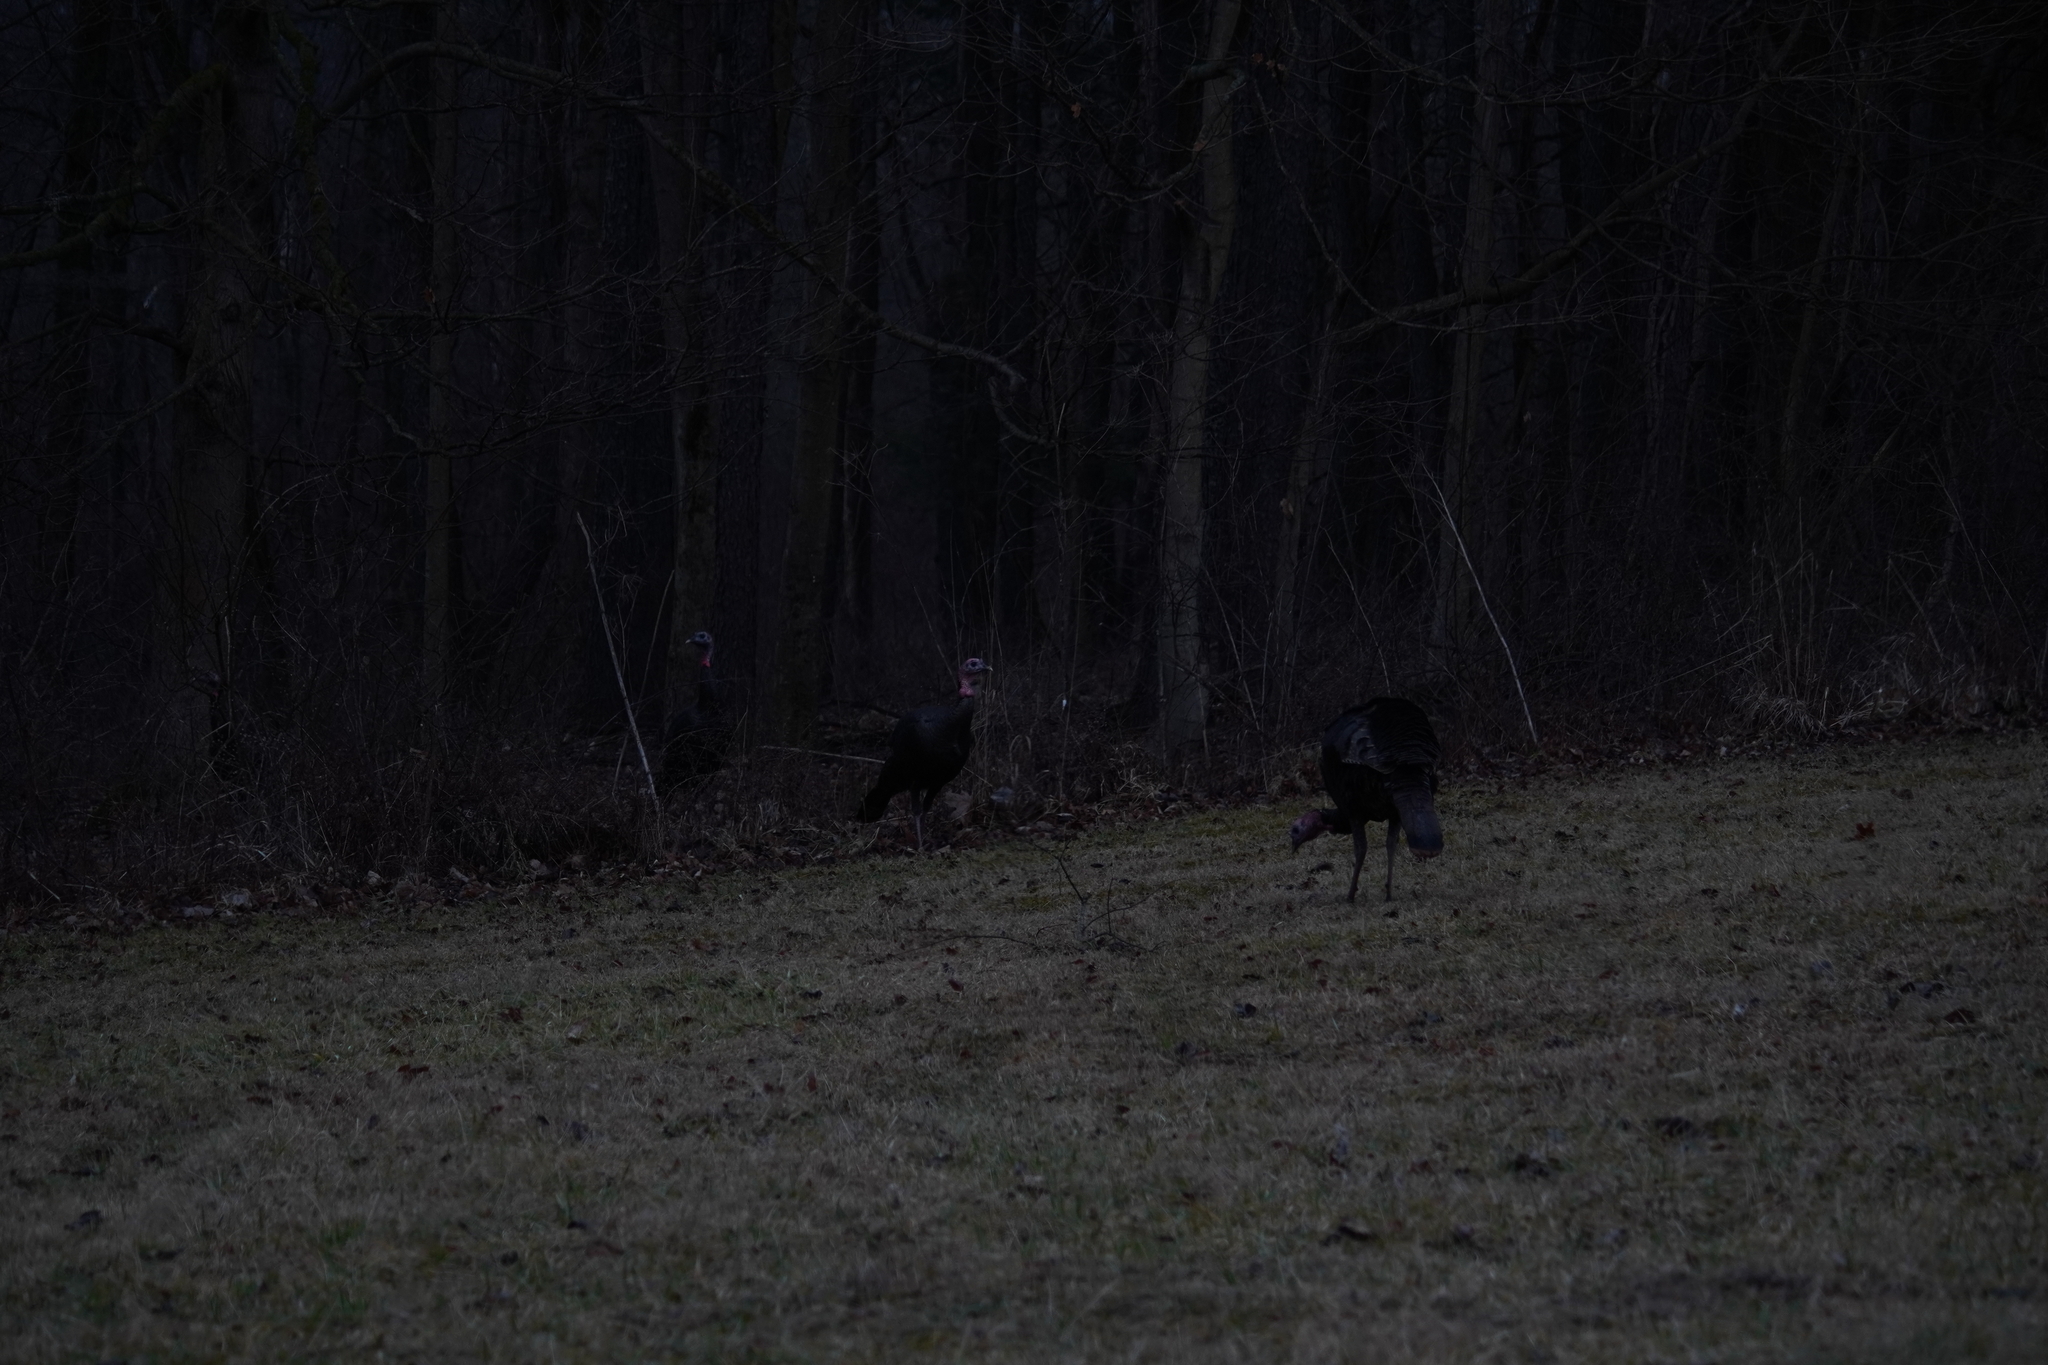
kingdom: Animalia
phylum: Chordata
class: Aves
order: Galliformes
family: Phasianidae
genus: Meleagris
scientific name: Meleagris gallopavo
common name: Wild turkey
